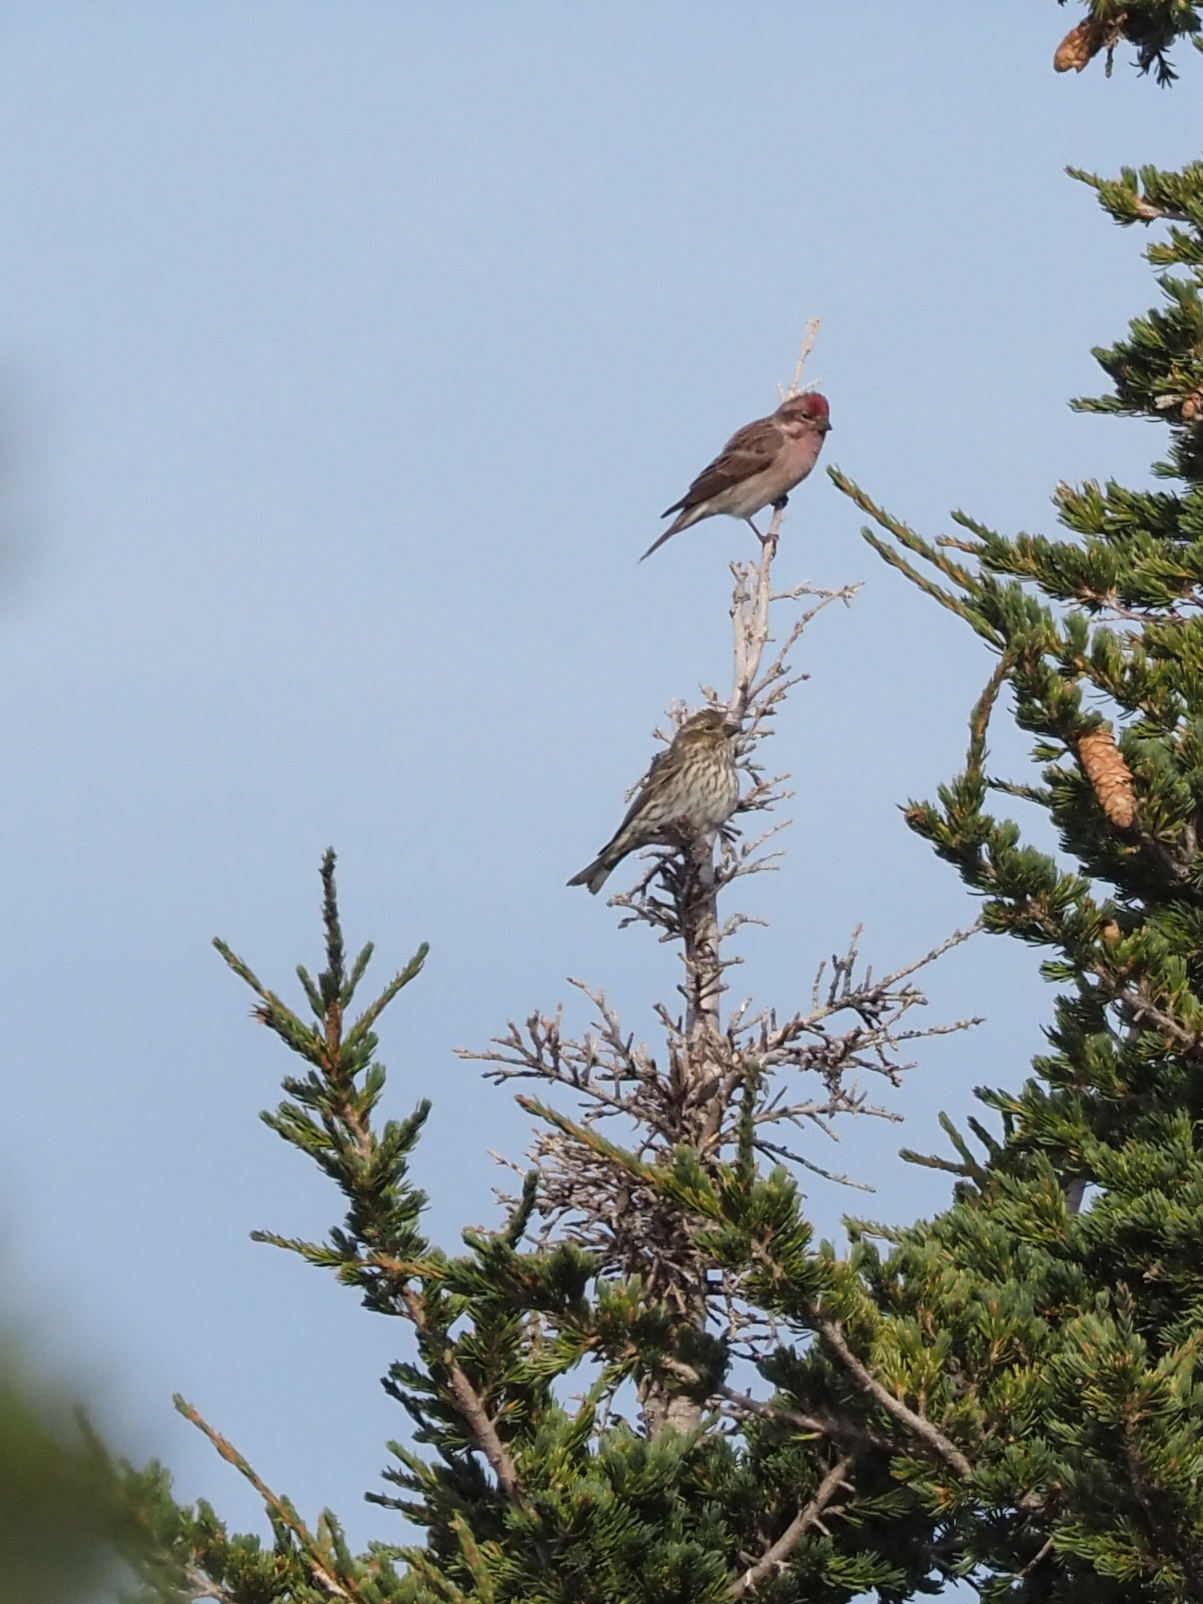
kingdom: Animalia
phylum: Chordata
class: Aves
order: Passeriformes
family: Fringillidae
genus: Haemorhous
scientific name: Haemorhous cassinii
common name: Cassin's finch
